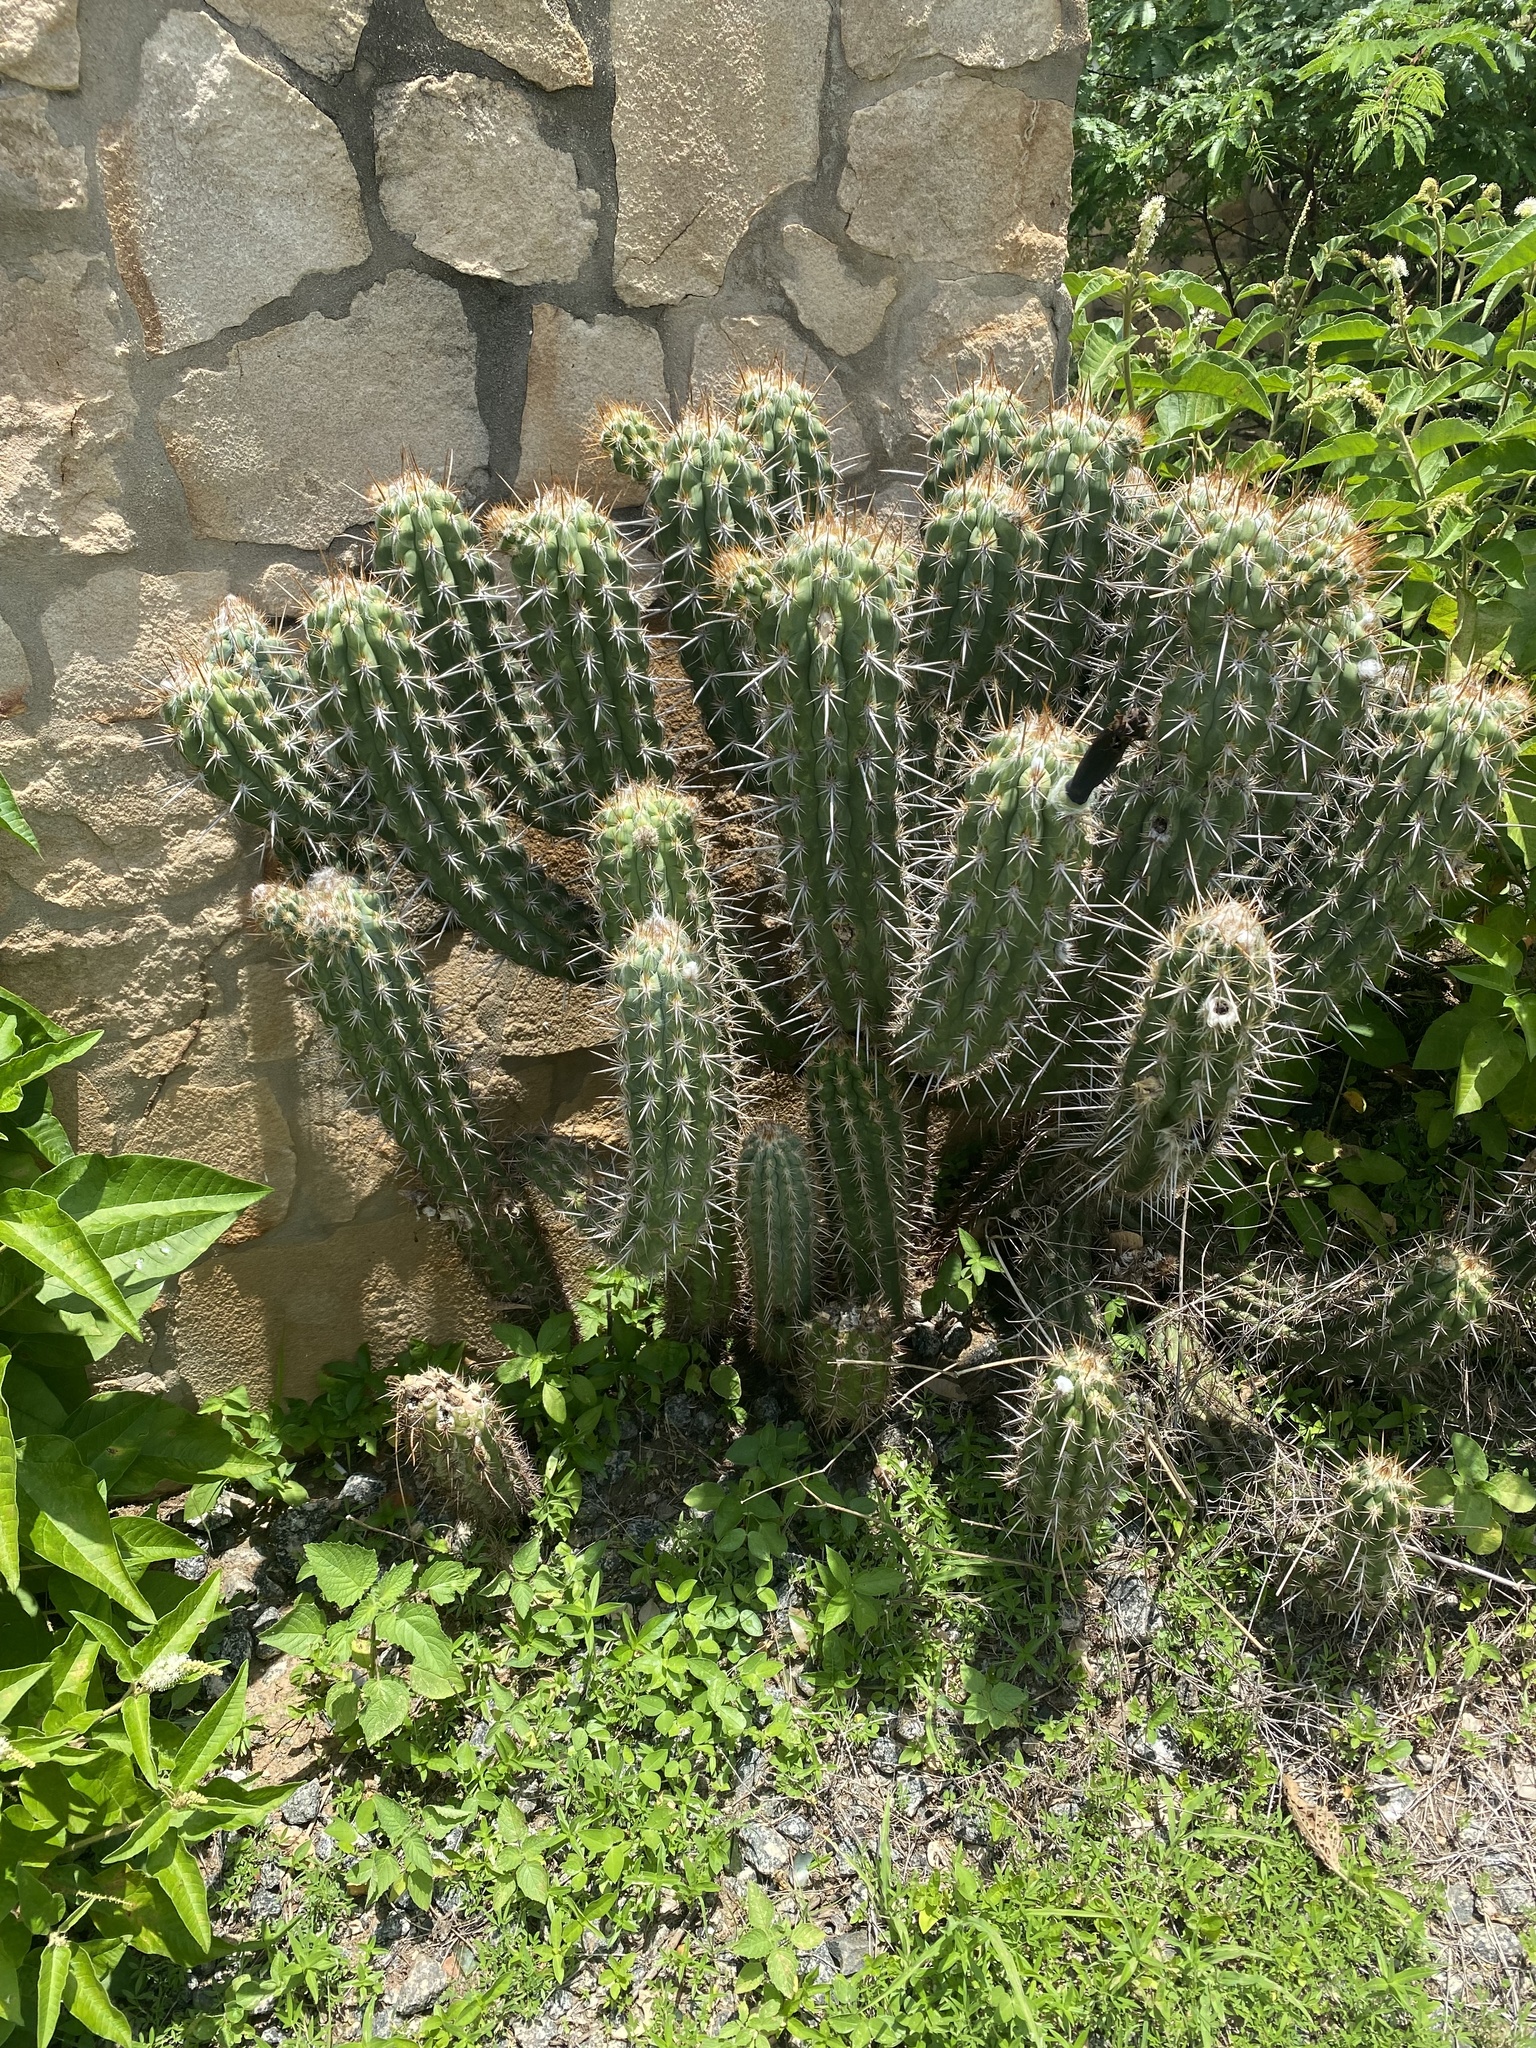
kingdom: Plantae
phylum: Tracheophyta
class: Magnoliopsida
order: Caryophyllales
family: Cactaceae
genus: Xiquexique
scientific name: Xiquexique gounellei
